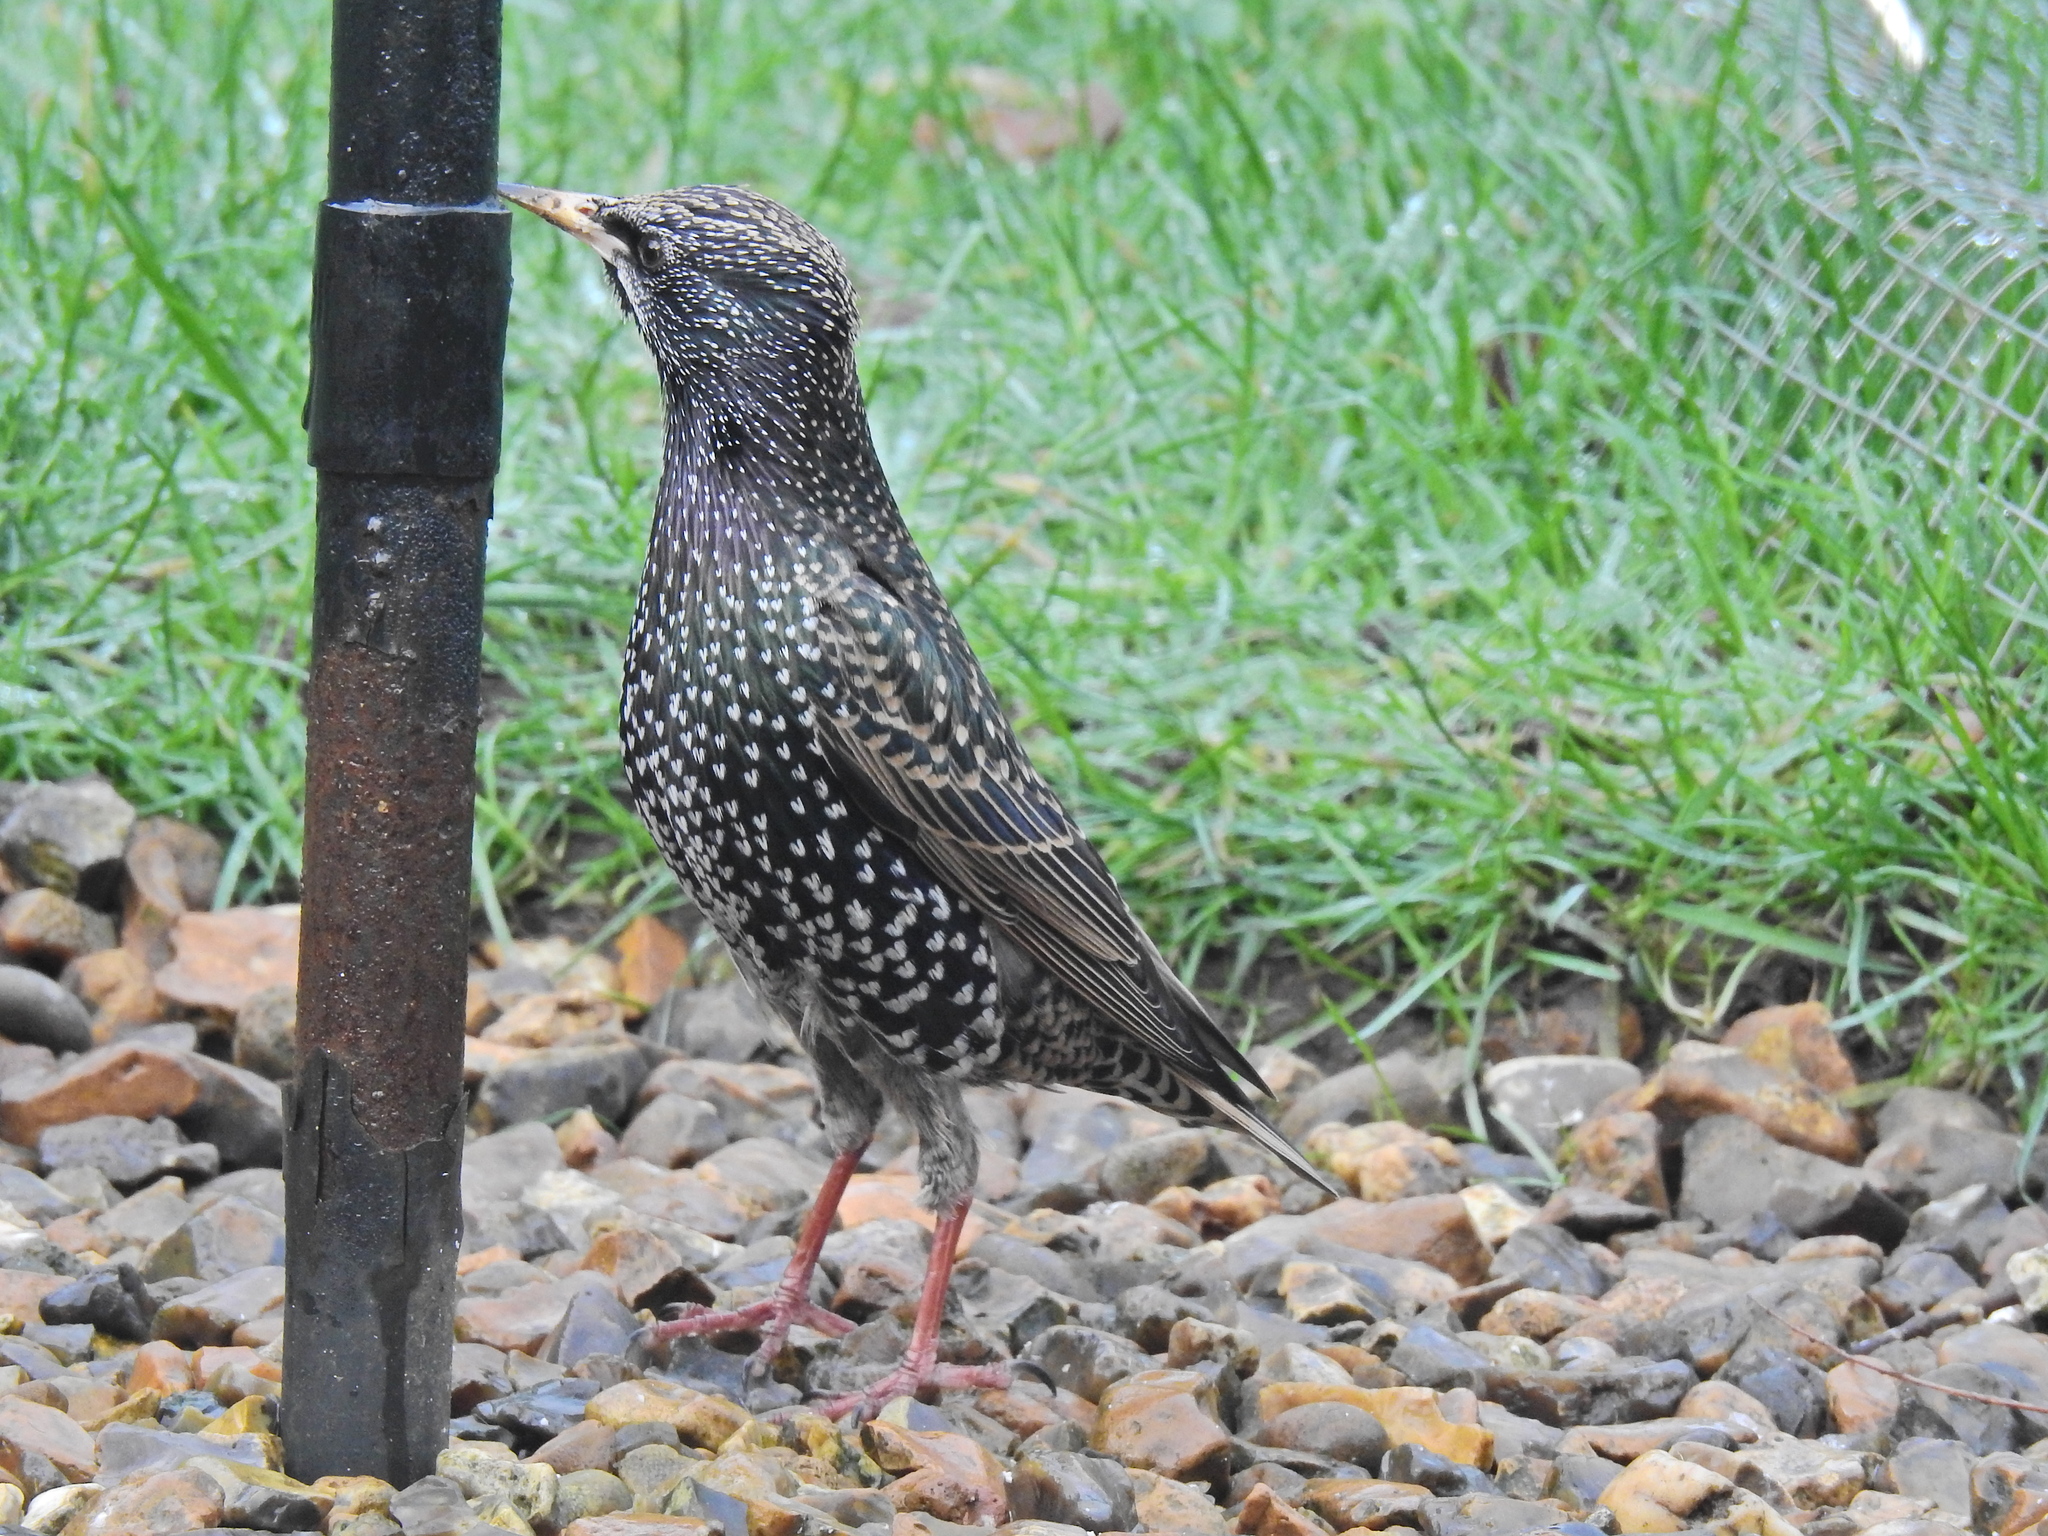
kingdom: Animalia
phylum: Chordata
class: Aves
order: Passeriformes
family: Sturnidae
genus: Sturnus
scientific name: Sturnus vulgaris
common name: Common starling
